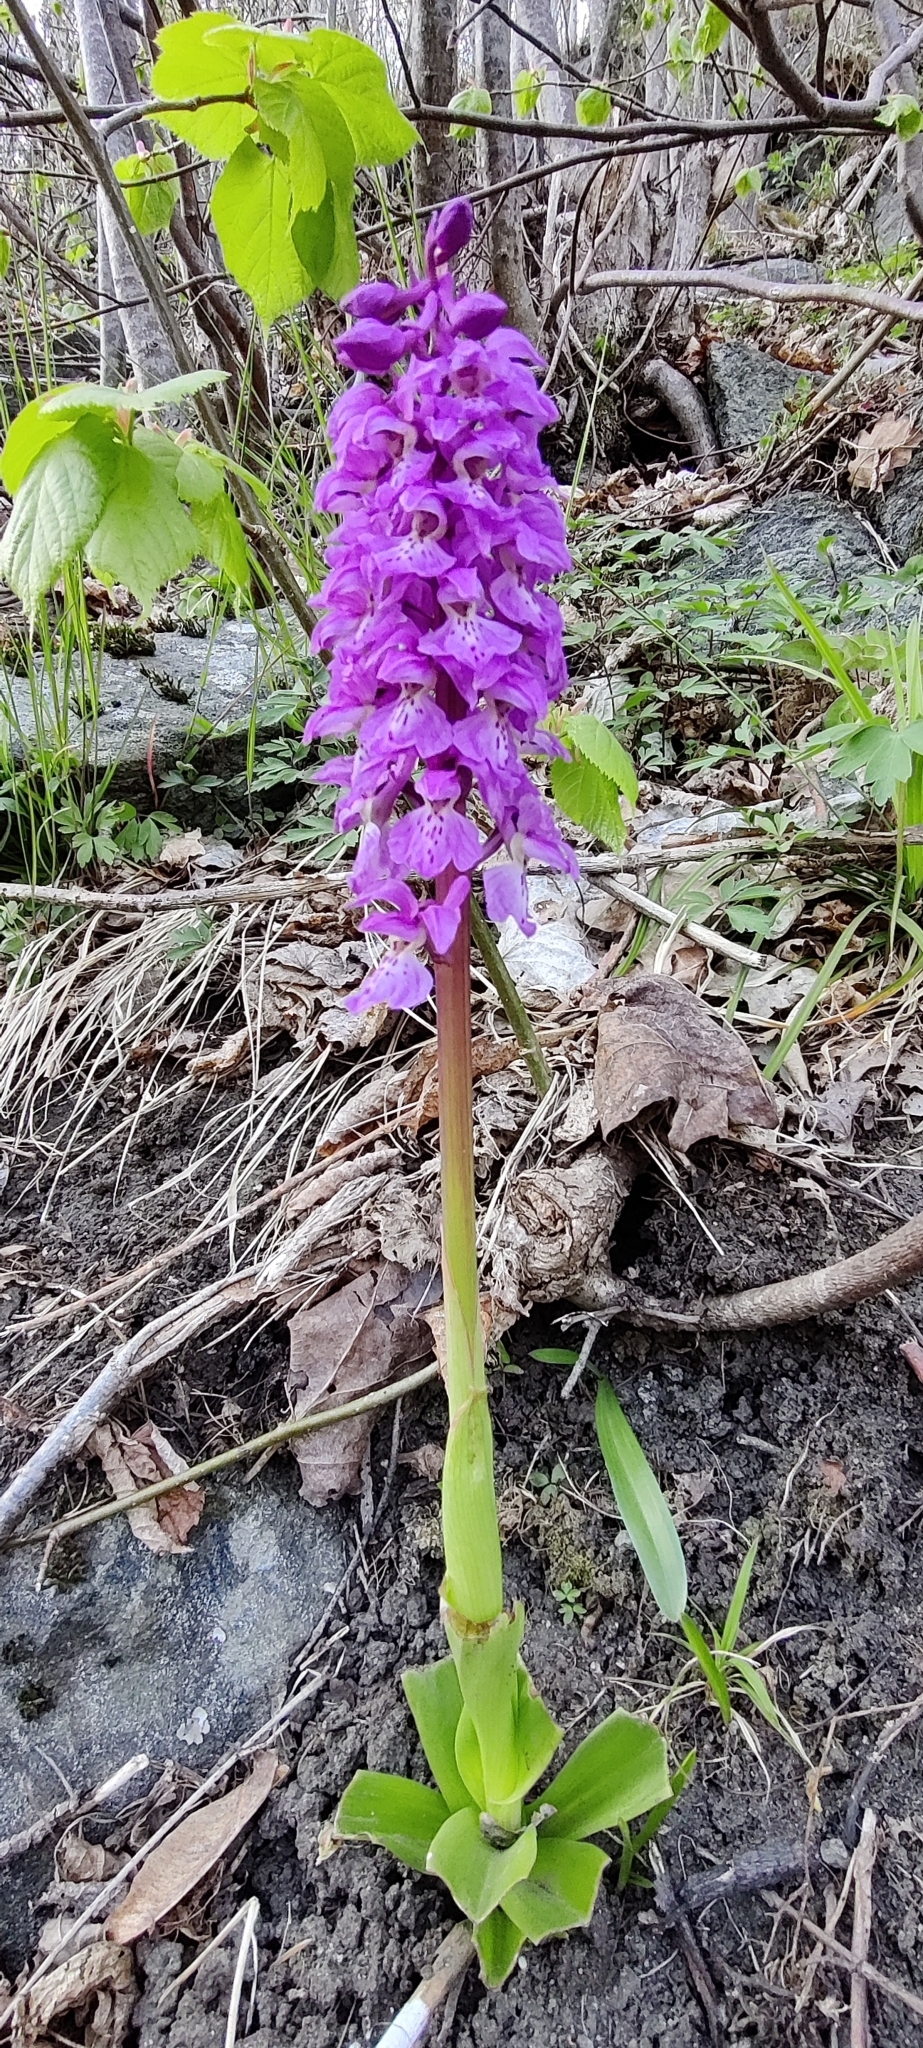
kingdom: Plantae
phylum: Tracheophyta
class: Liliopsida
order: Asparagales
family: Orchidaceae
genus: Orchis
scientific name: Orchis mascula
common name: Early-purple orchid
